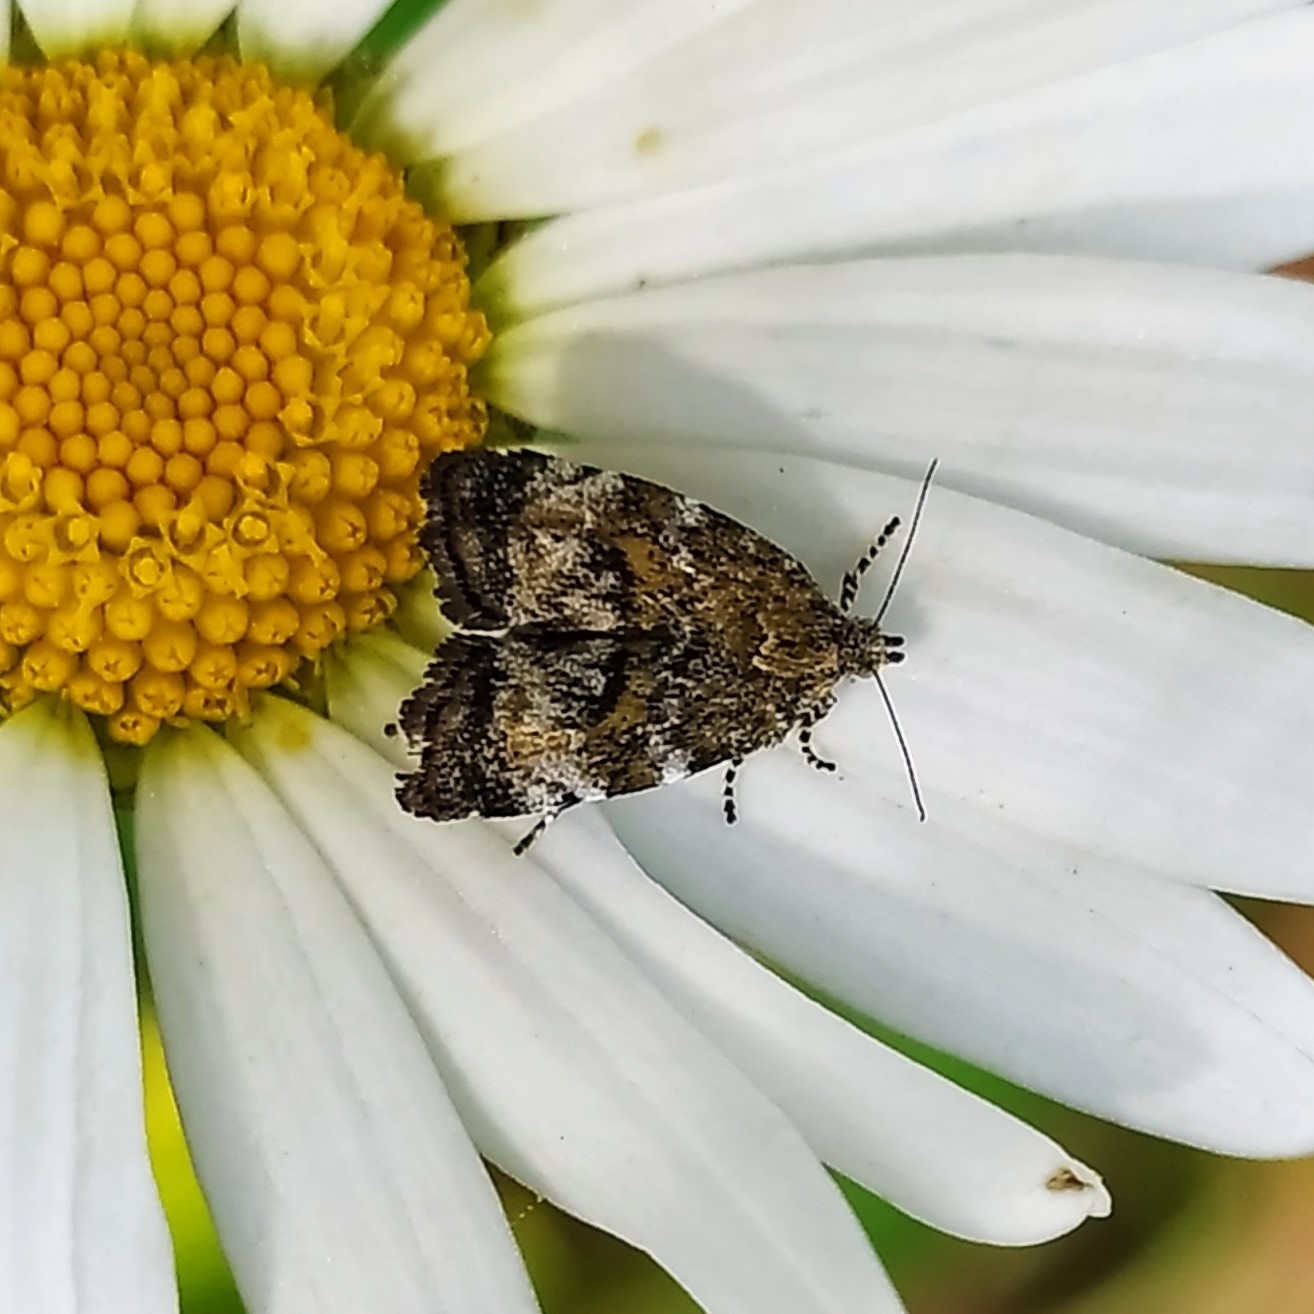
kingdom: Animalia
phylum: Arthropoda
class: Insecta
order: Lepidoptera
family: Choreutidae
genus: Choreutis
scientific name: Choreutis diana
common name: Inverness twitcher
